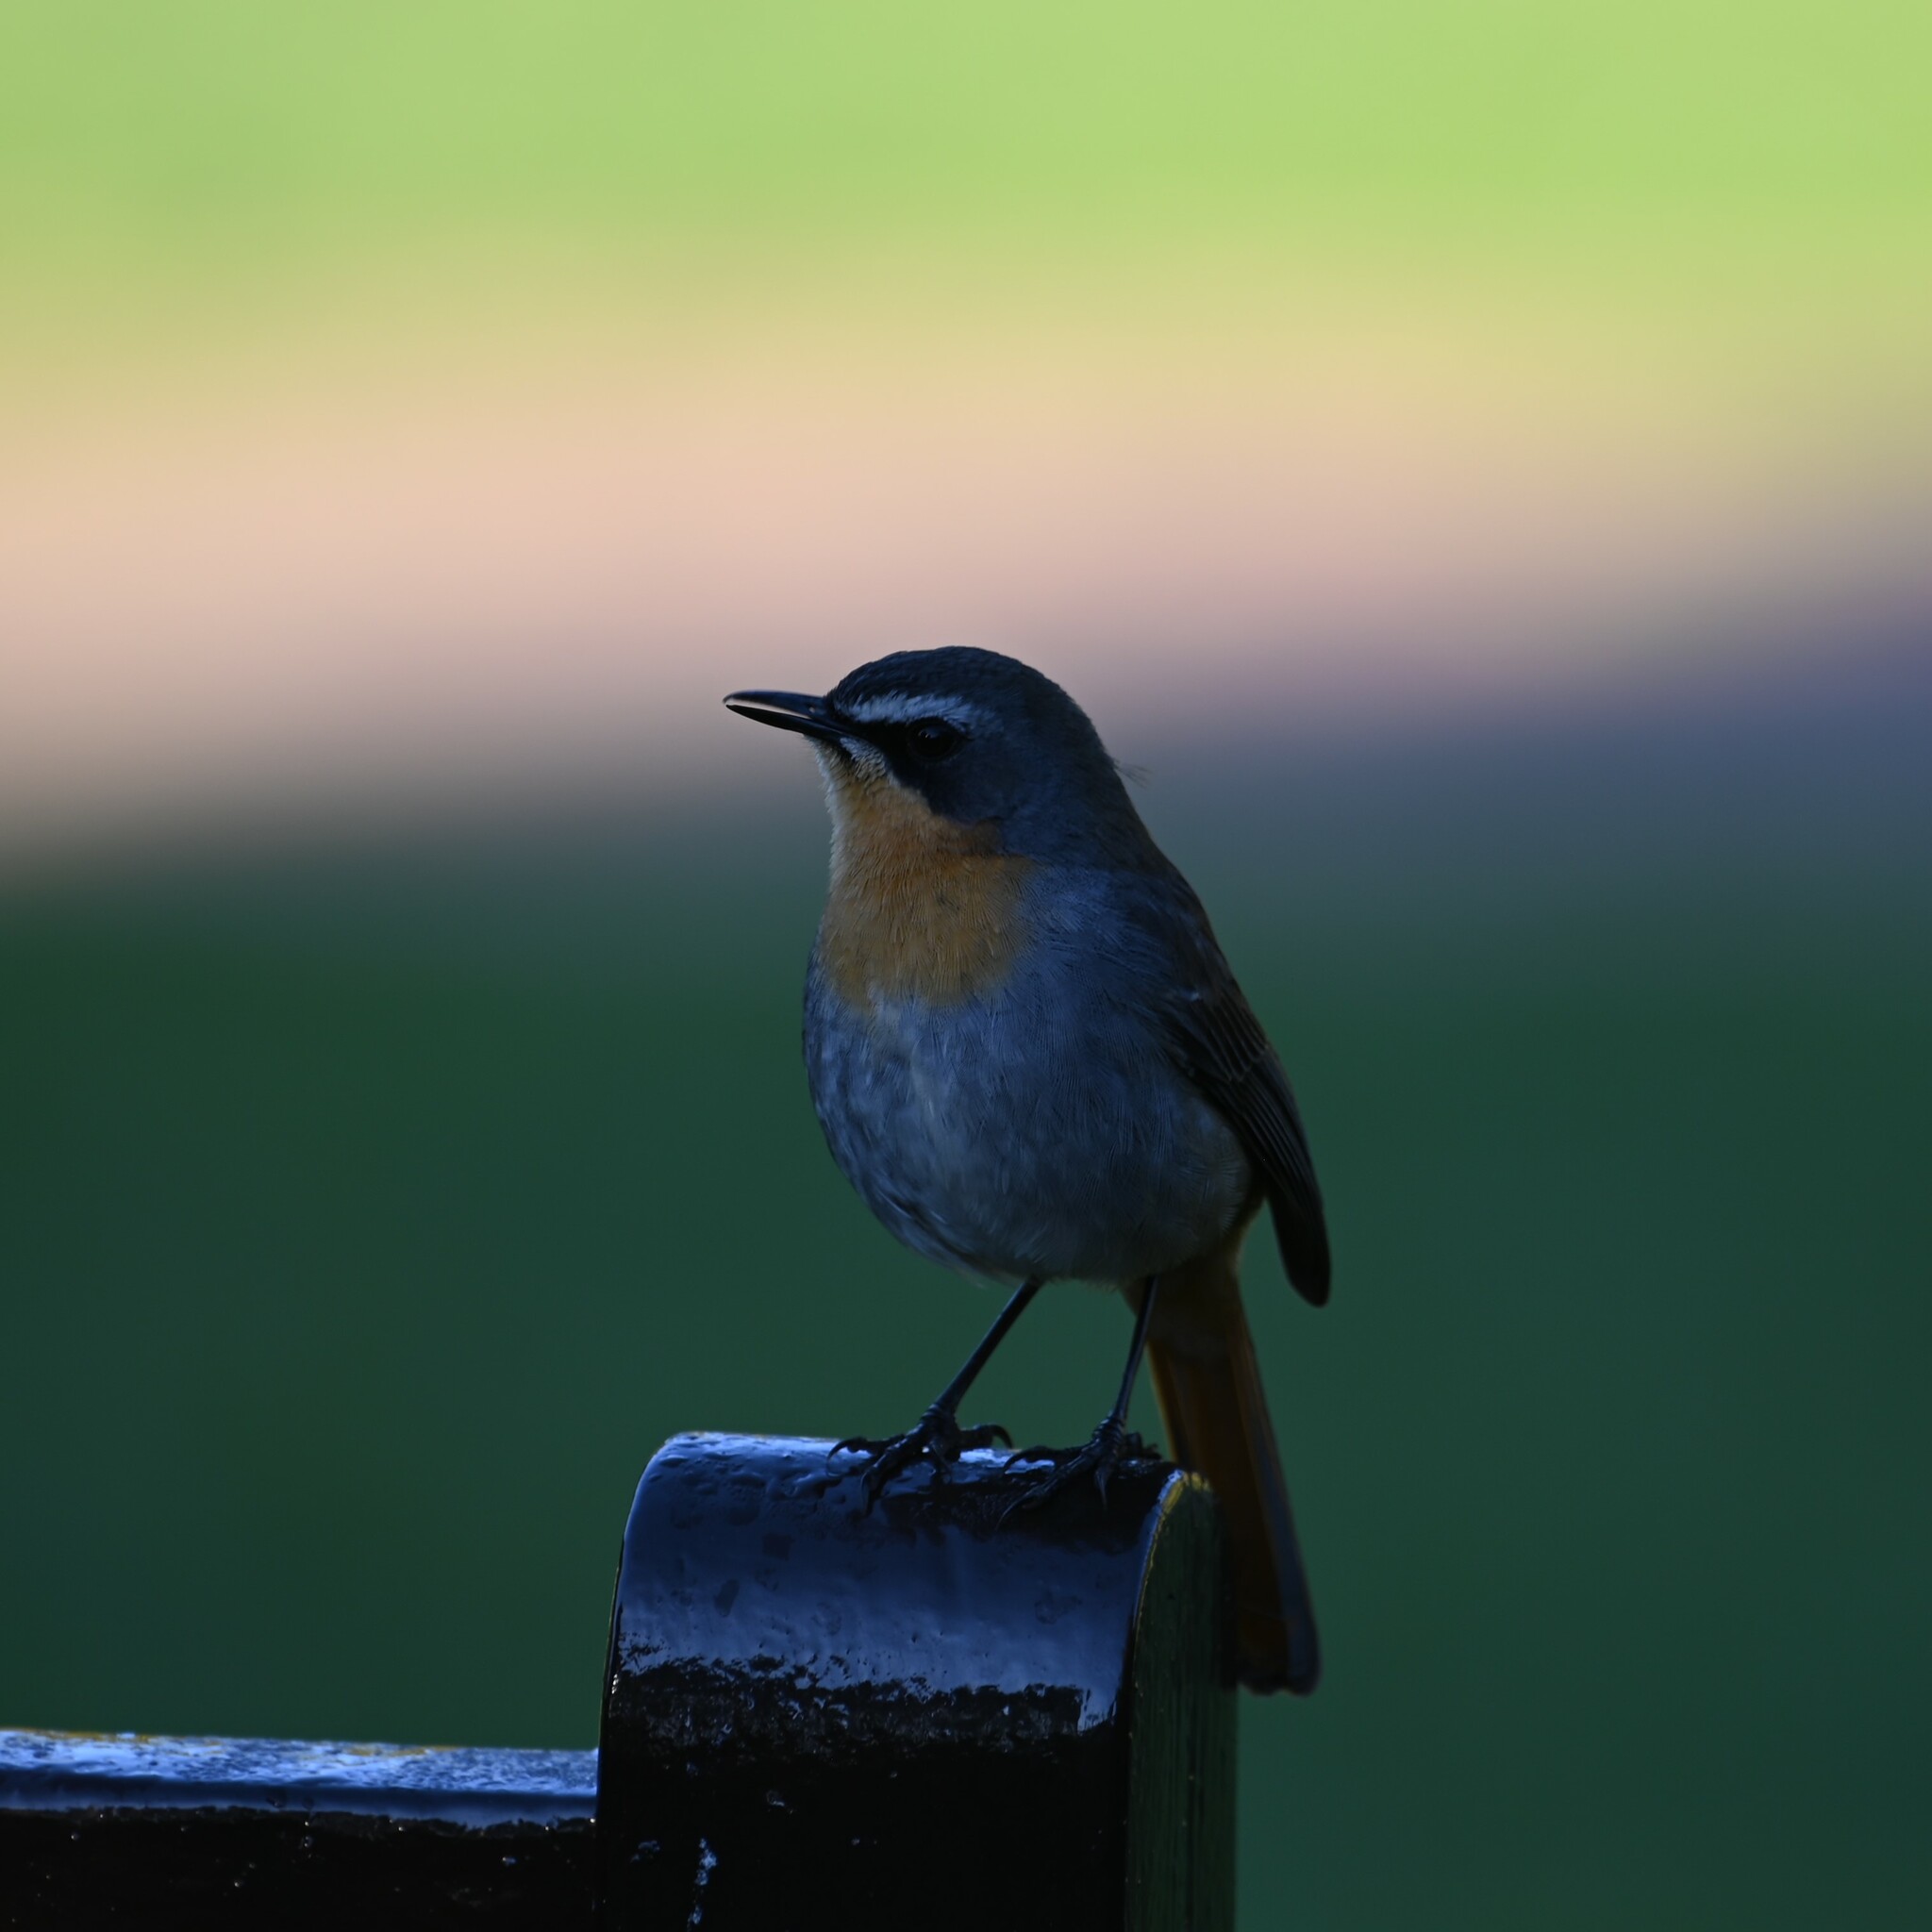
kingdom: Animalia
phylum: Chordata
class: Aves
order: Passeriformes
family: Muscicapidae
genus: Cossypha
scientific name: Cossypha caffra
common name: Cape robin-chat
